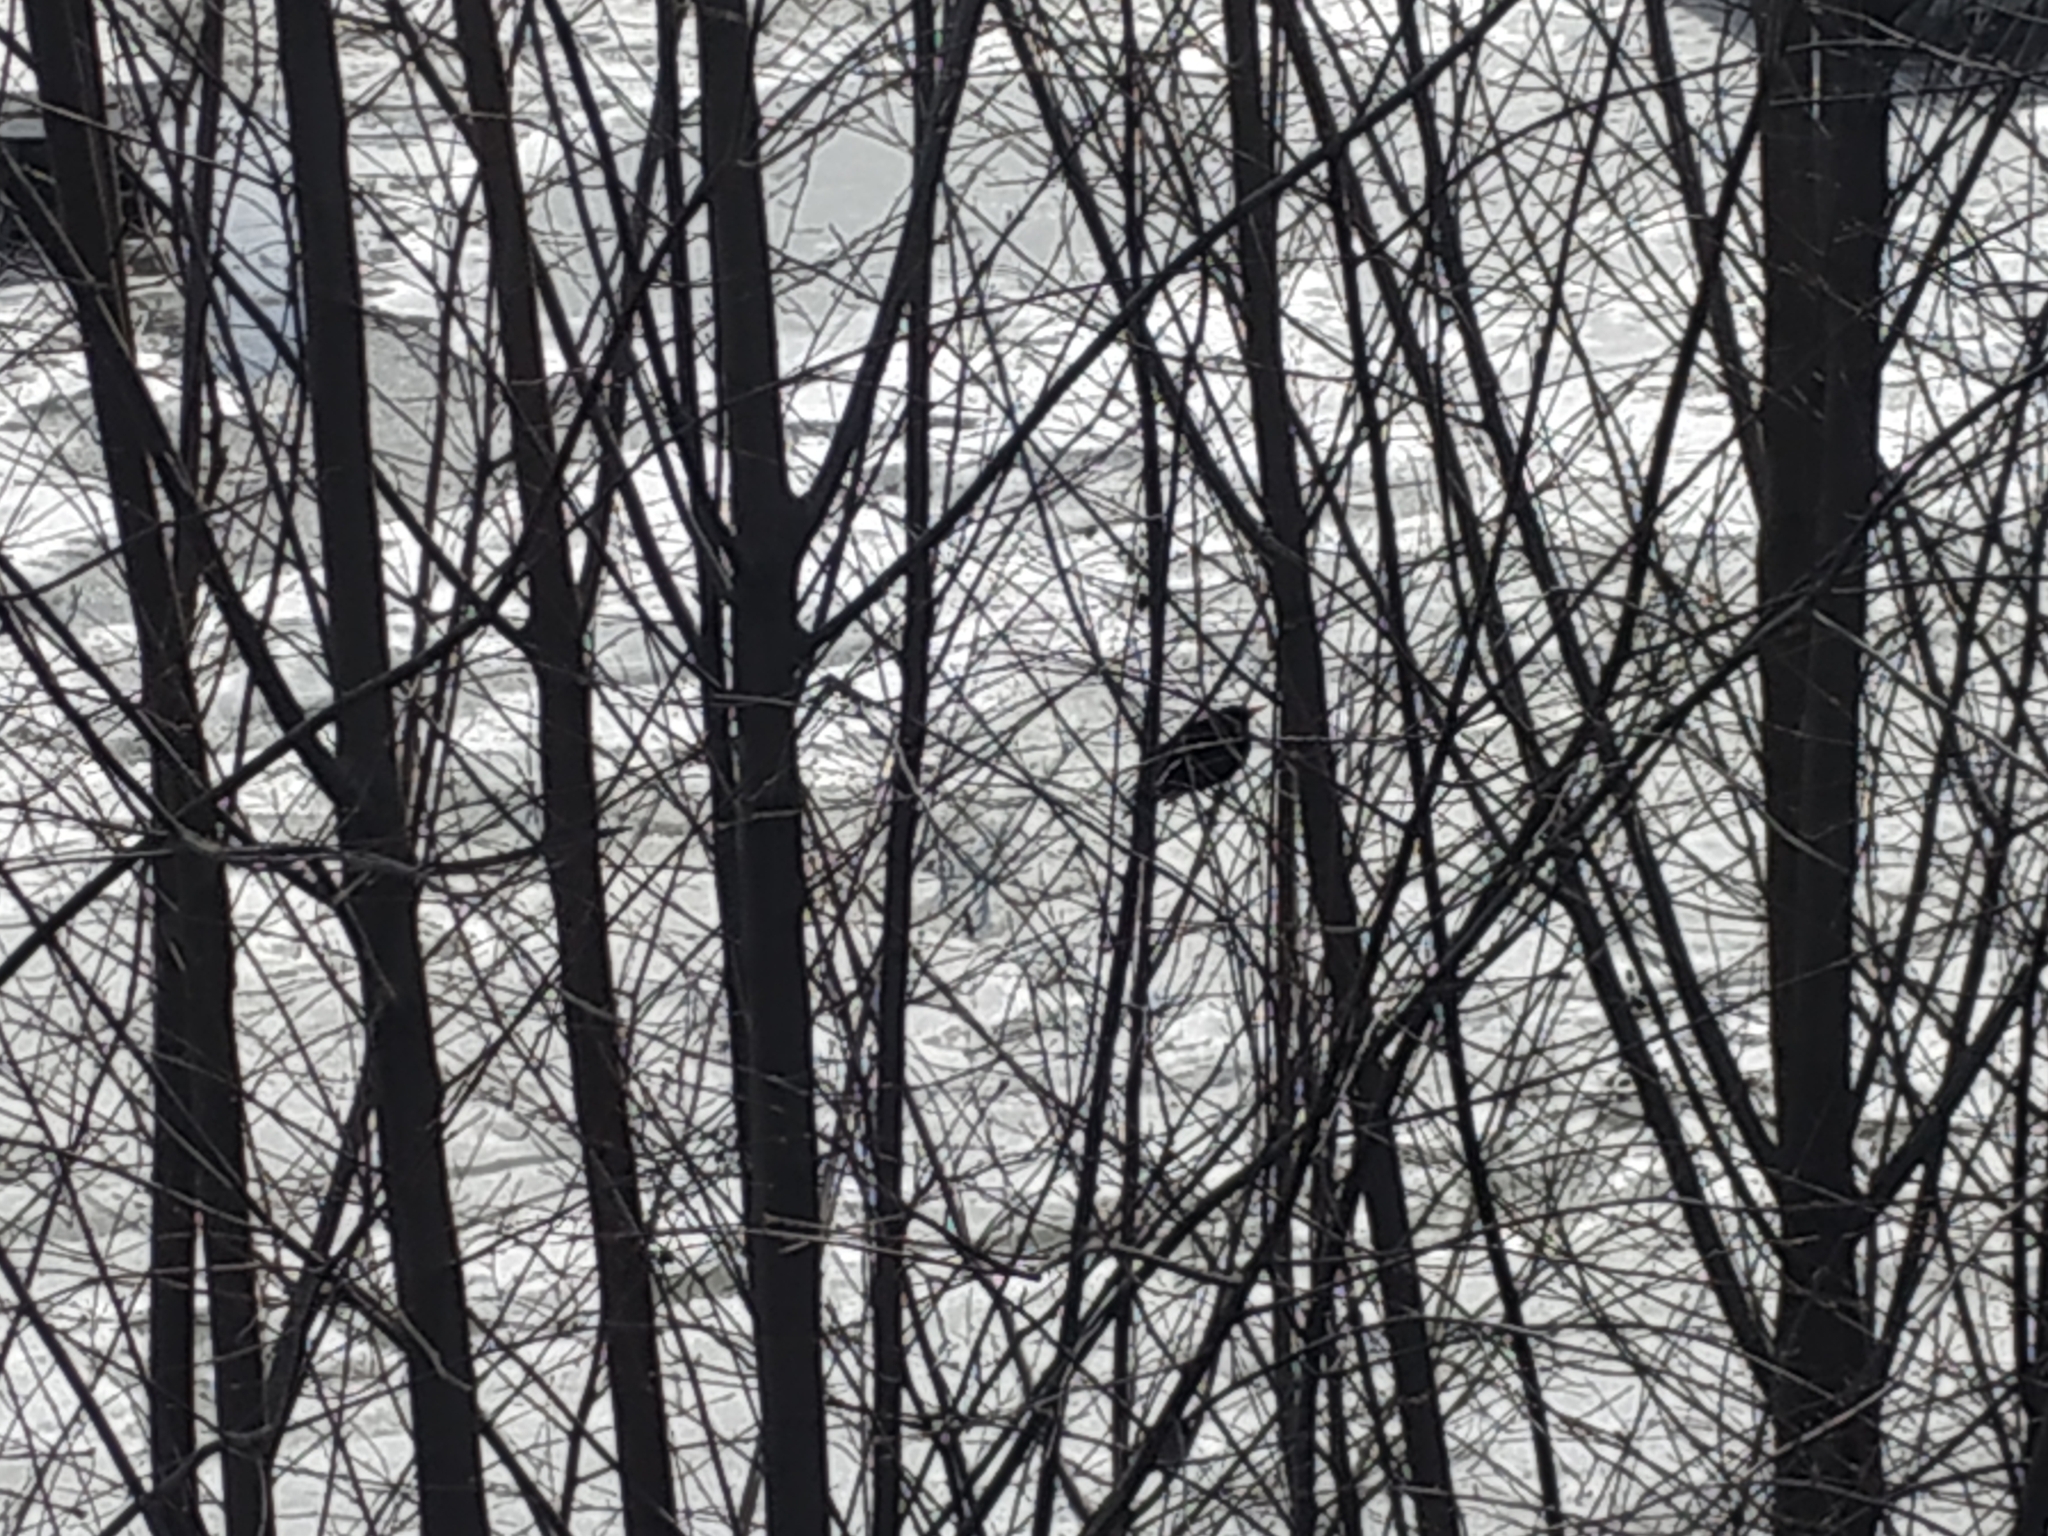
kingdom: Animalia
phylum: Chordata
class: Aves
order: Passeriformes
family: Turdidae
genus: Turdus
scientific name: Turdus merula
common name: Common blackbird
